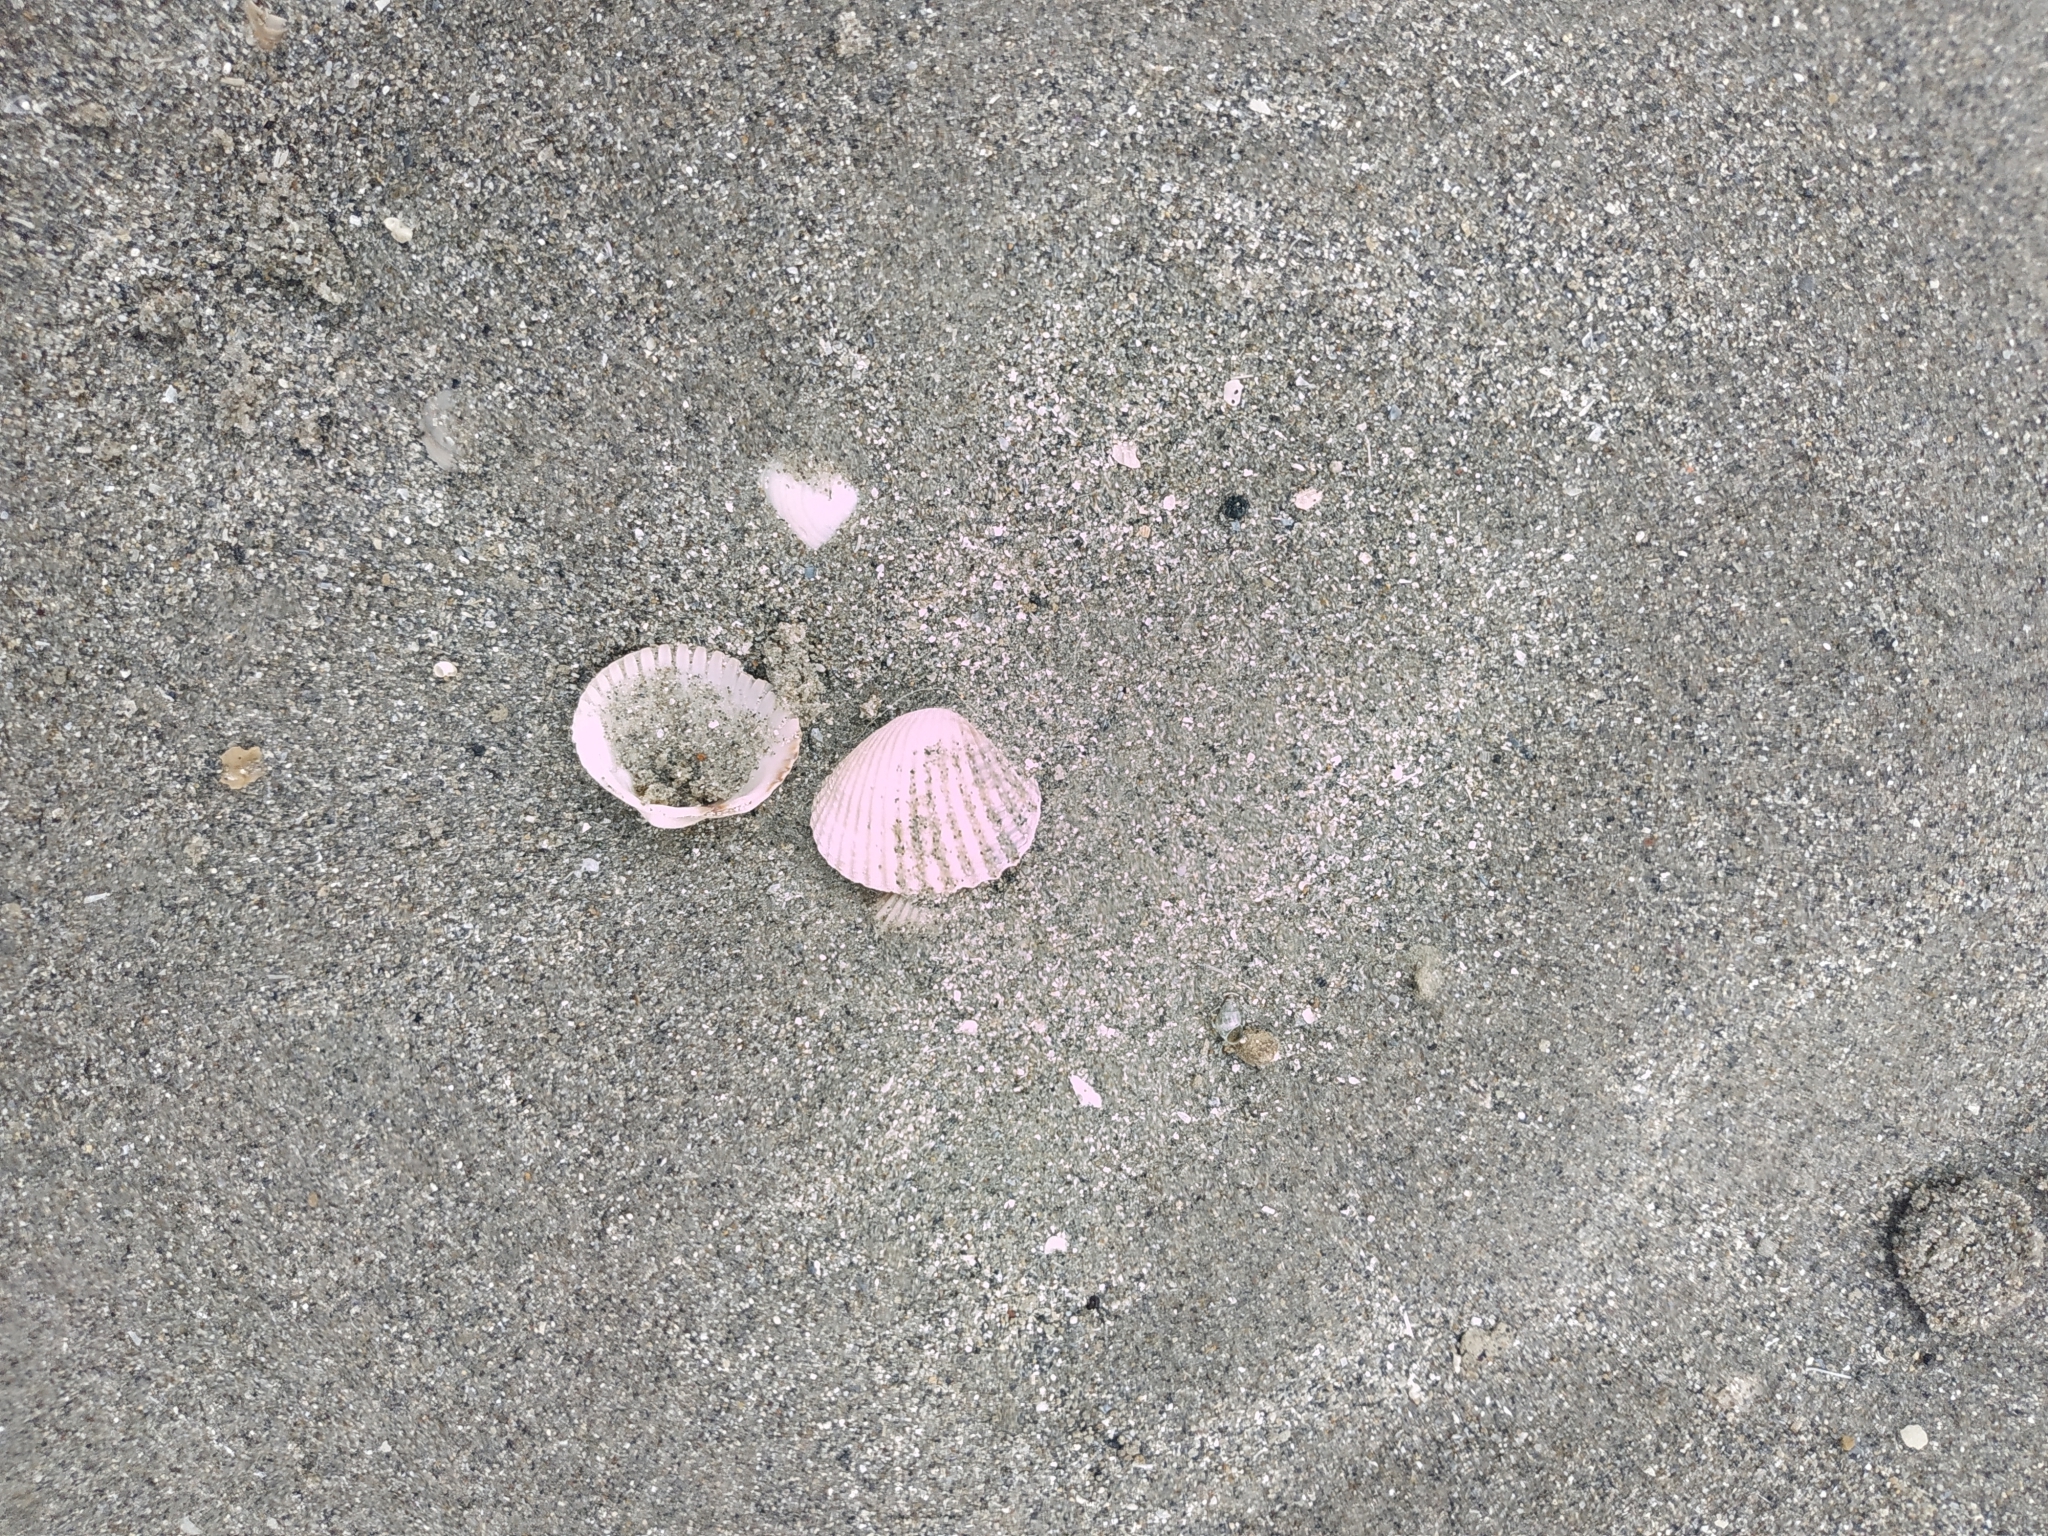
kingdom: Animalia
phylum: Mollusca
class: Bivalvia
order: Cardiida
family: Cardiidae
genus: Cerastoderma
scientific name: Cerastoderma edule
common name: Common cockle
